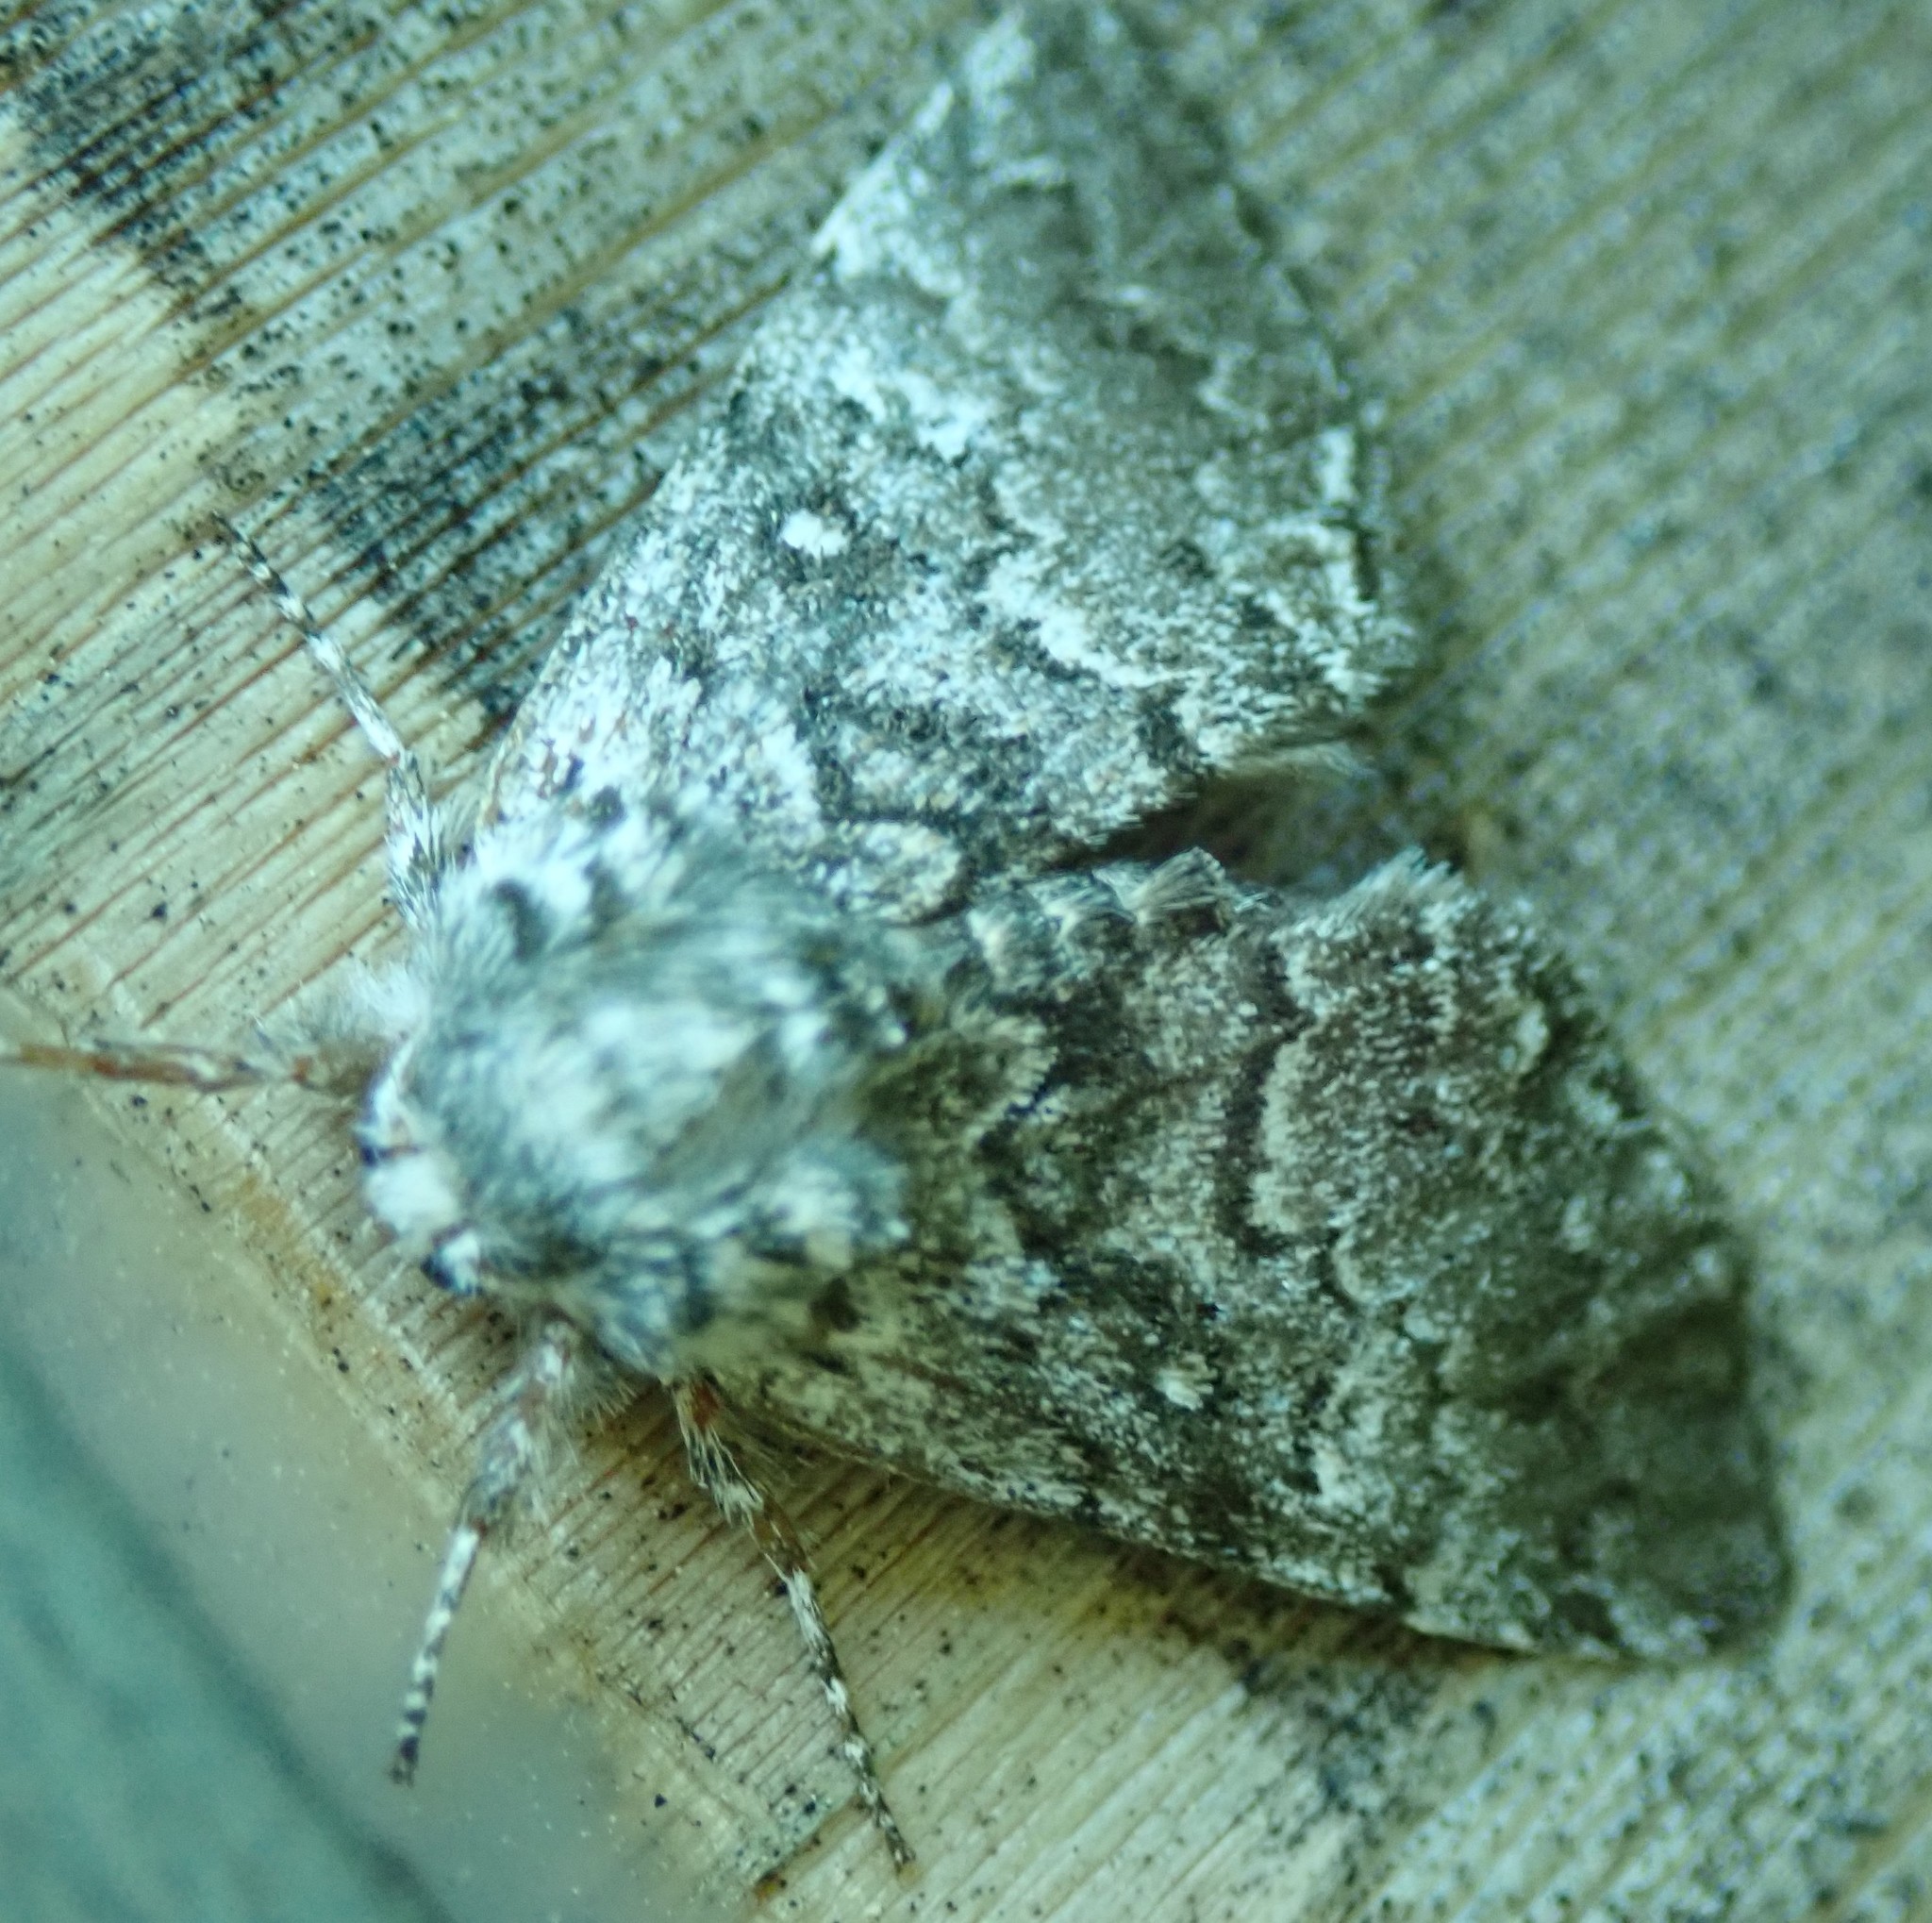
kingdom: Animalia
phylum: Arthropoda
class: Insecta
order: Lepidoptera
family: Noctuidae
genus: Colocasia
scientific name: Colocasia propinquilinea
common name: Close-banded demas
